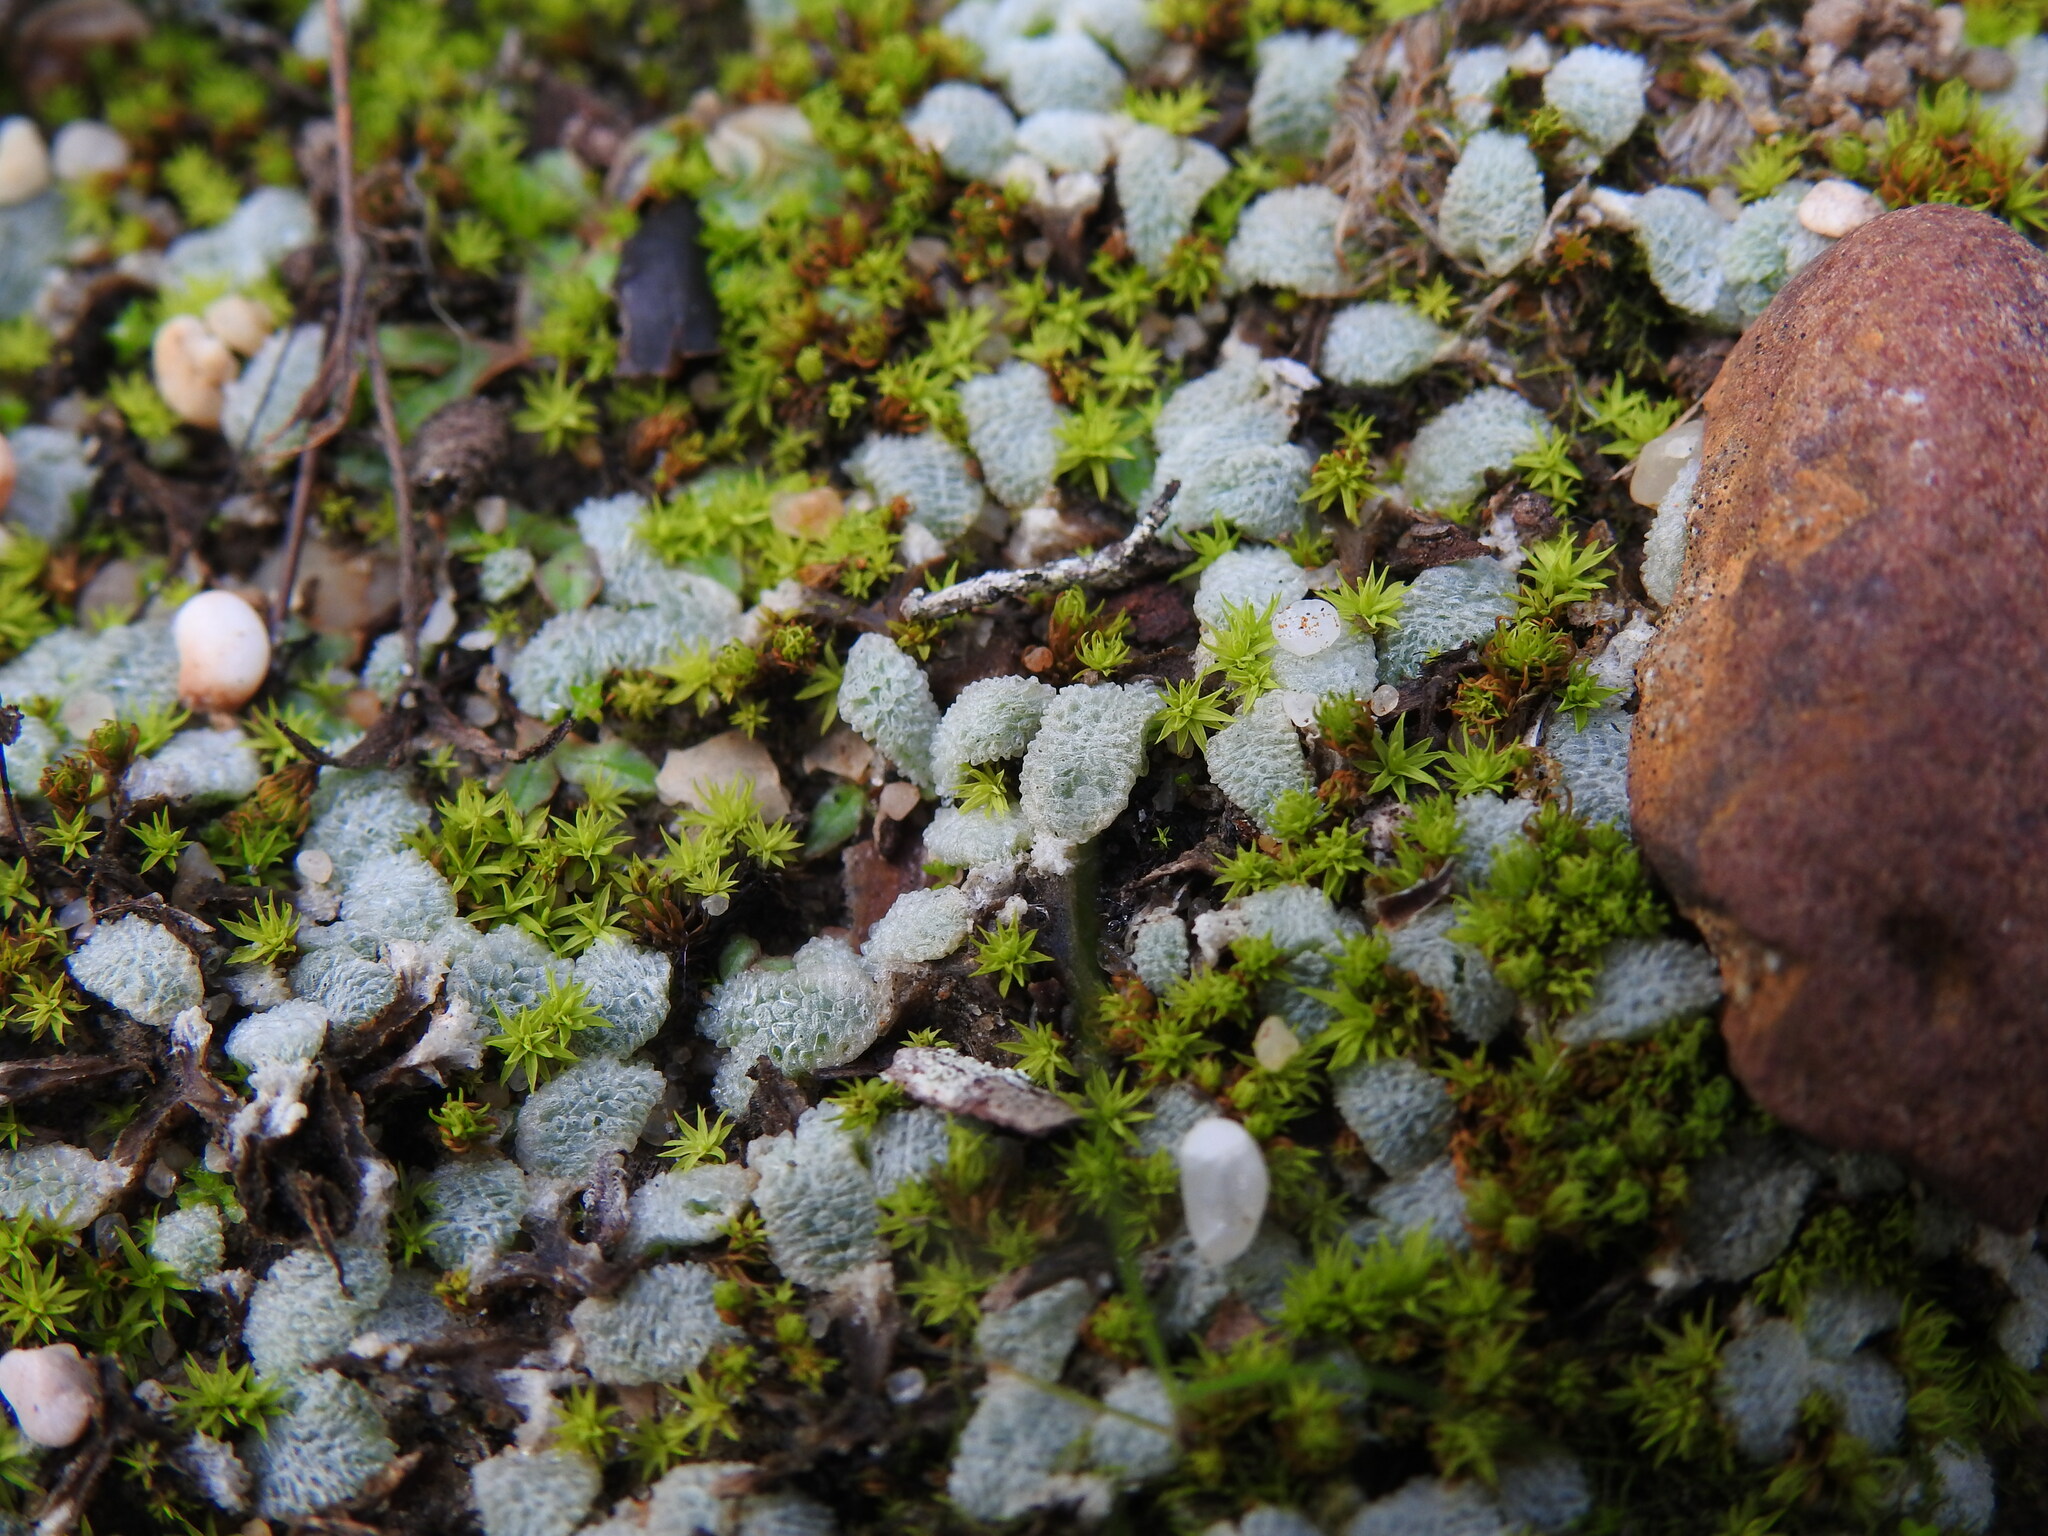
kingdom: Plantae
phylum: Marchantiophyta
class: Marchantiopsida
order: Marchantiales
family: Corsiniaceae
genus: Exormotheca
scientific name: Exormotheca welwitschii
